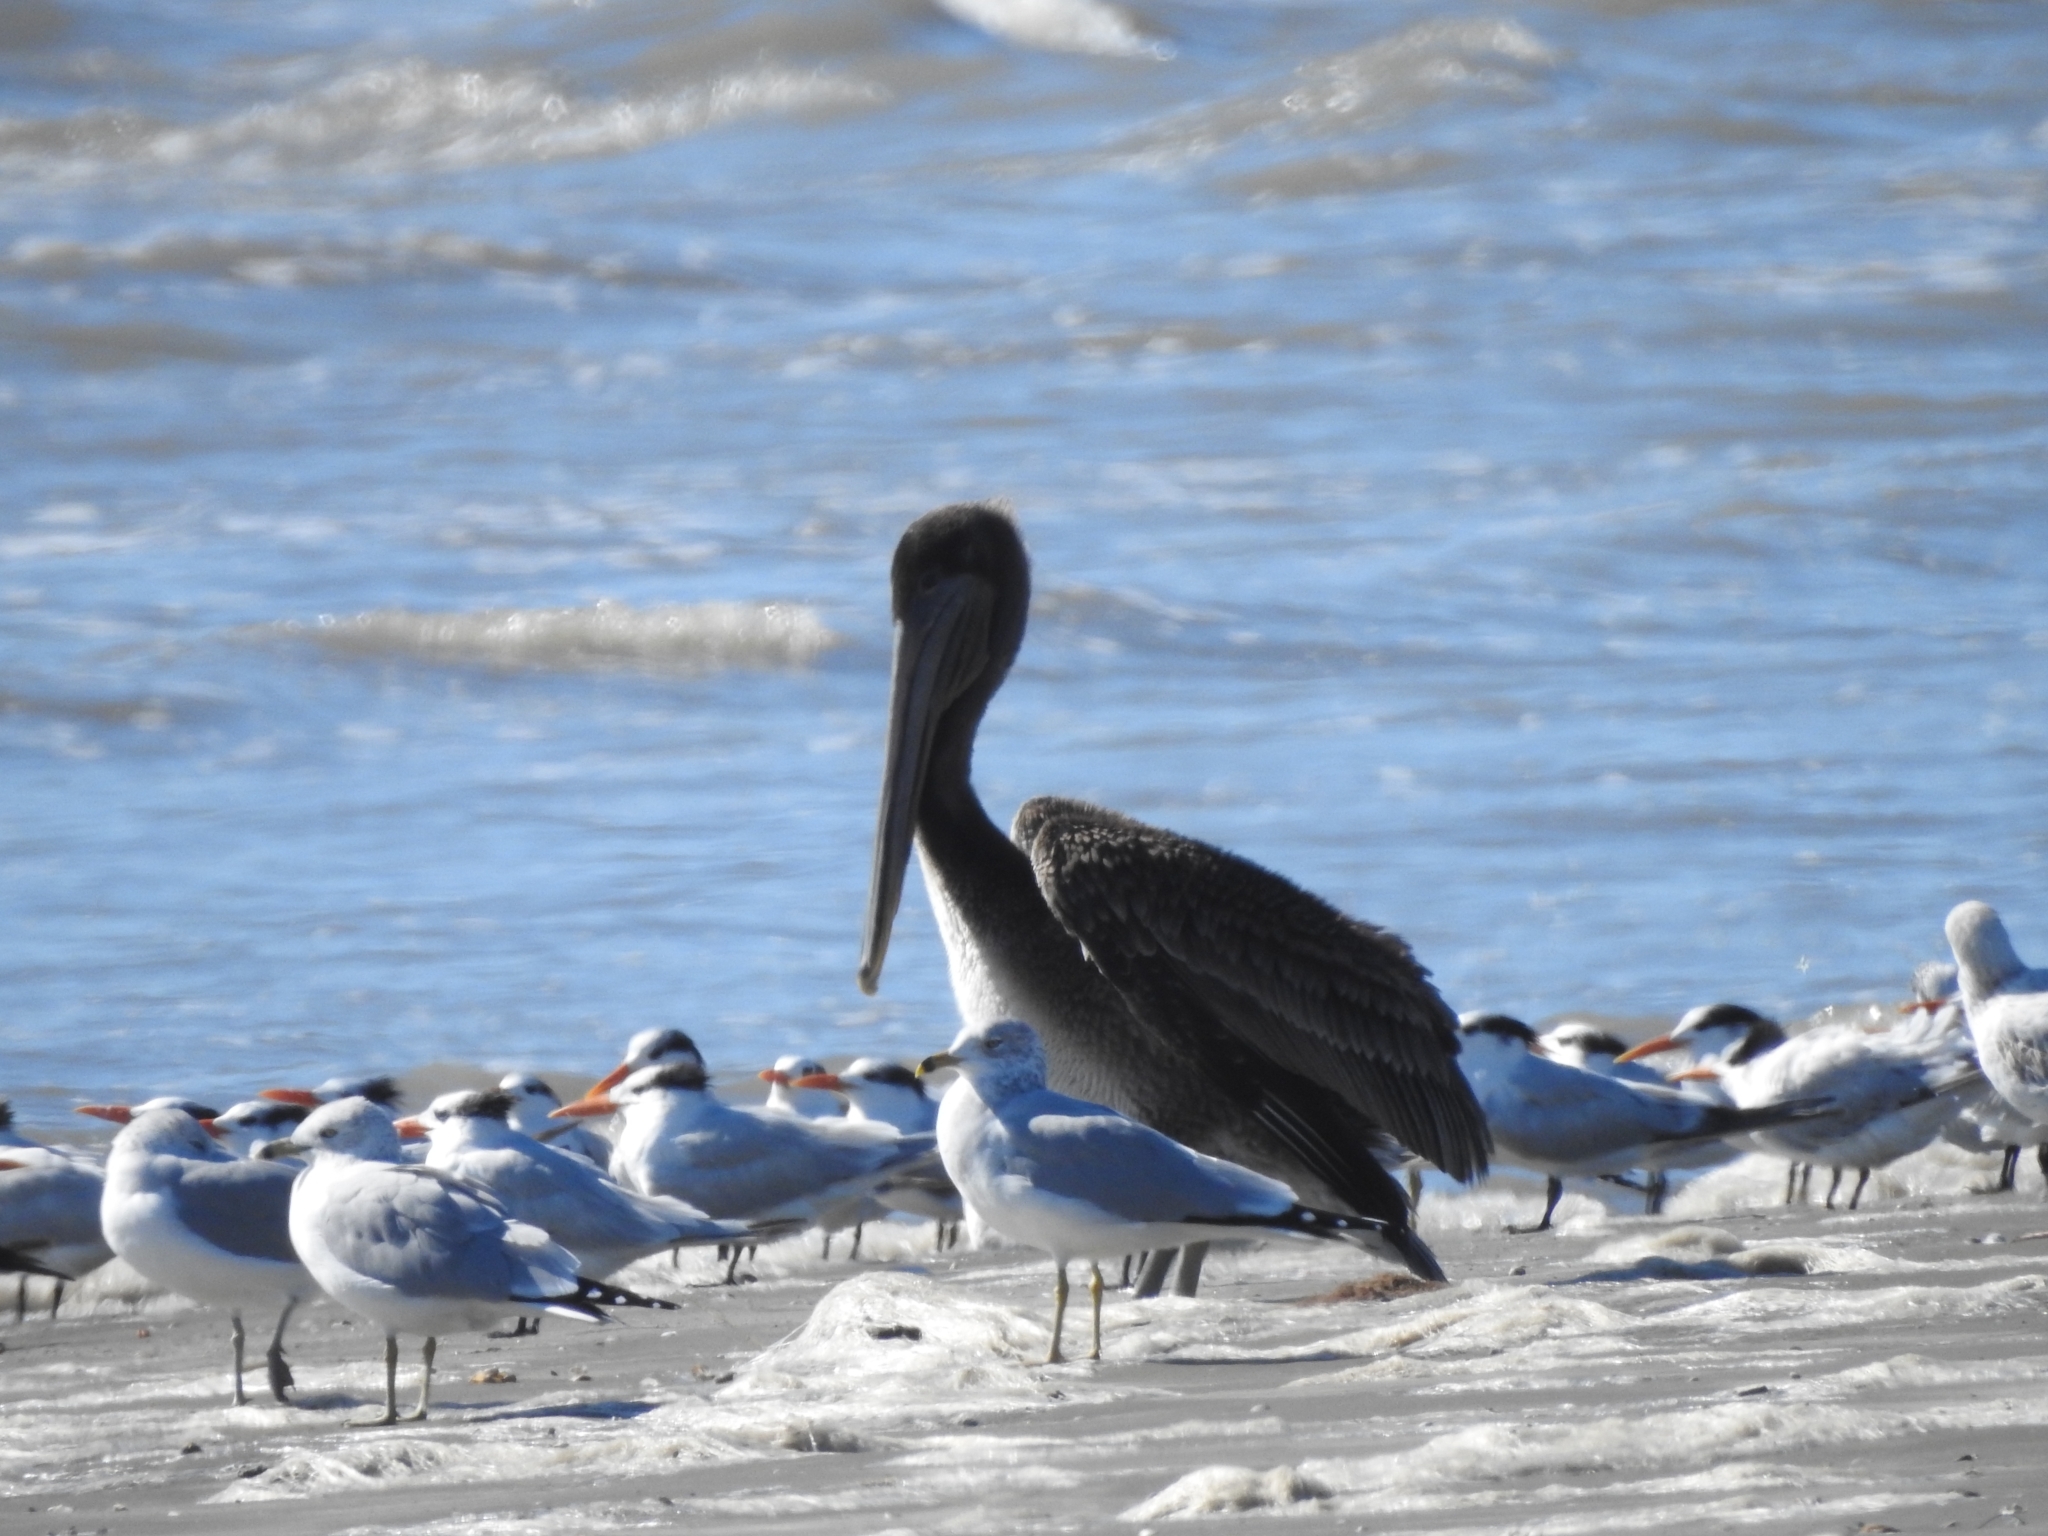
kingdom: Animalia
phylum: Chordata
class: Aves
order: Pelecaniformes
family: Pelecanidae
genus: Pelecanus
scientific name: Pelecanus occidentalis
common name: Brown pelican
